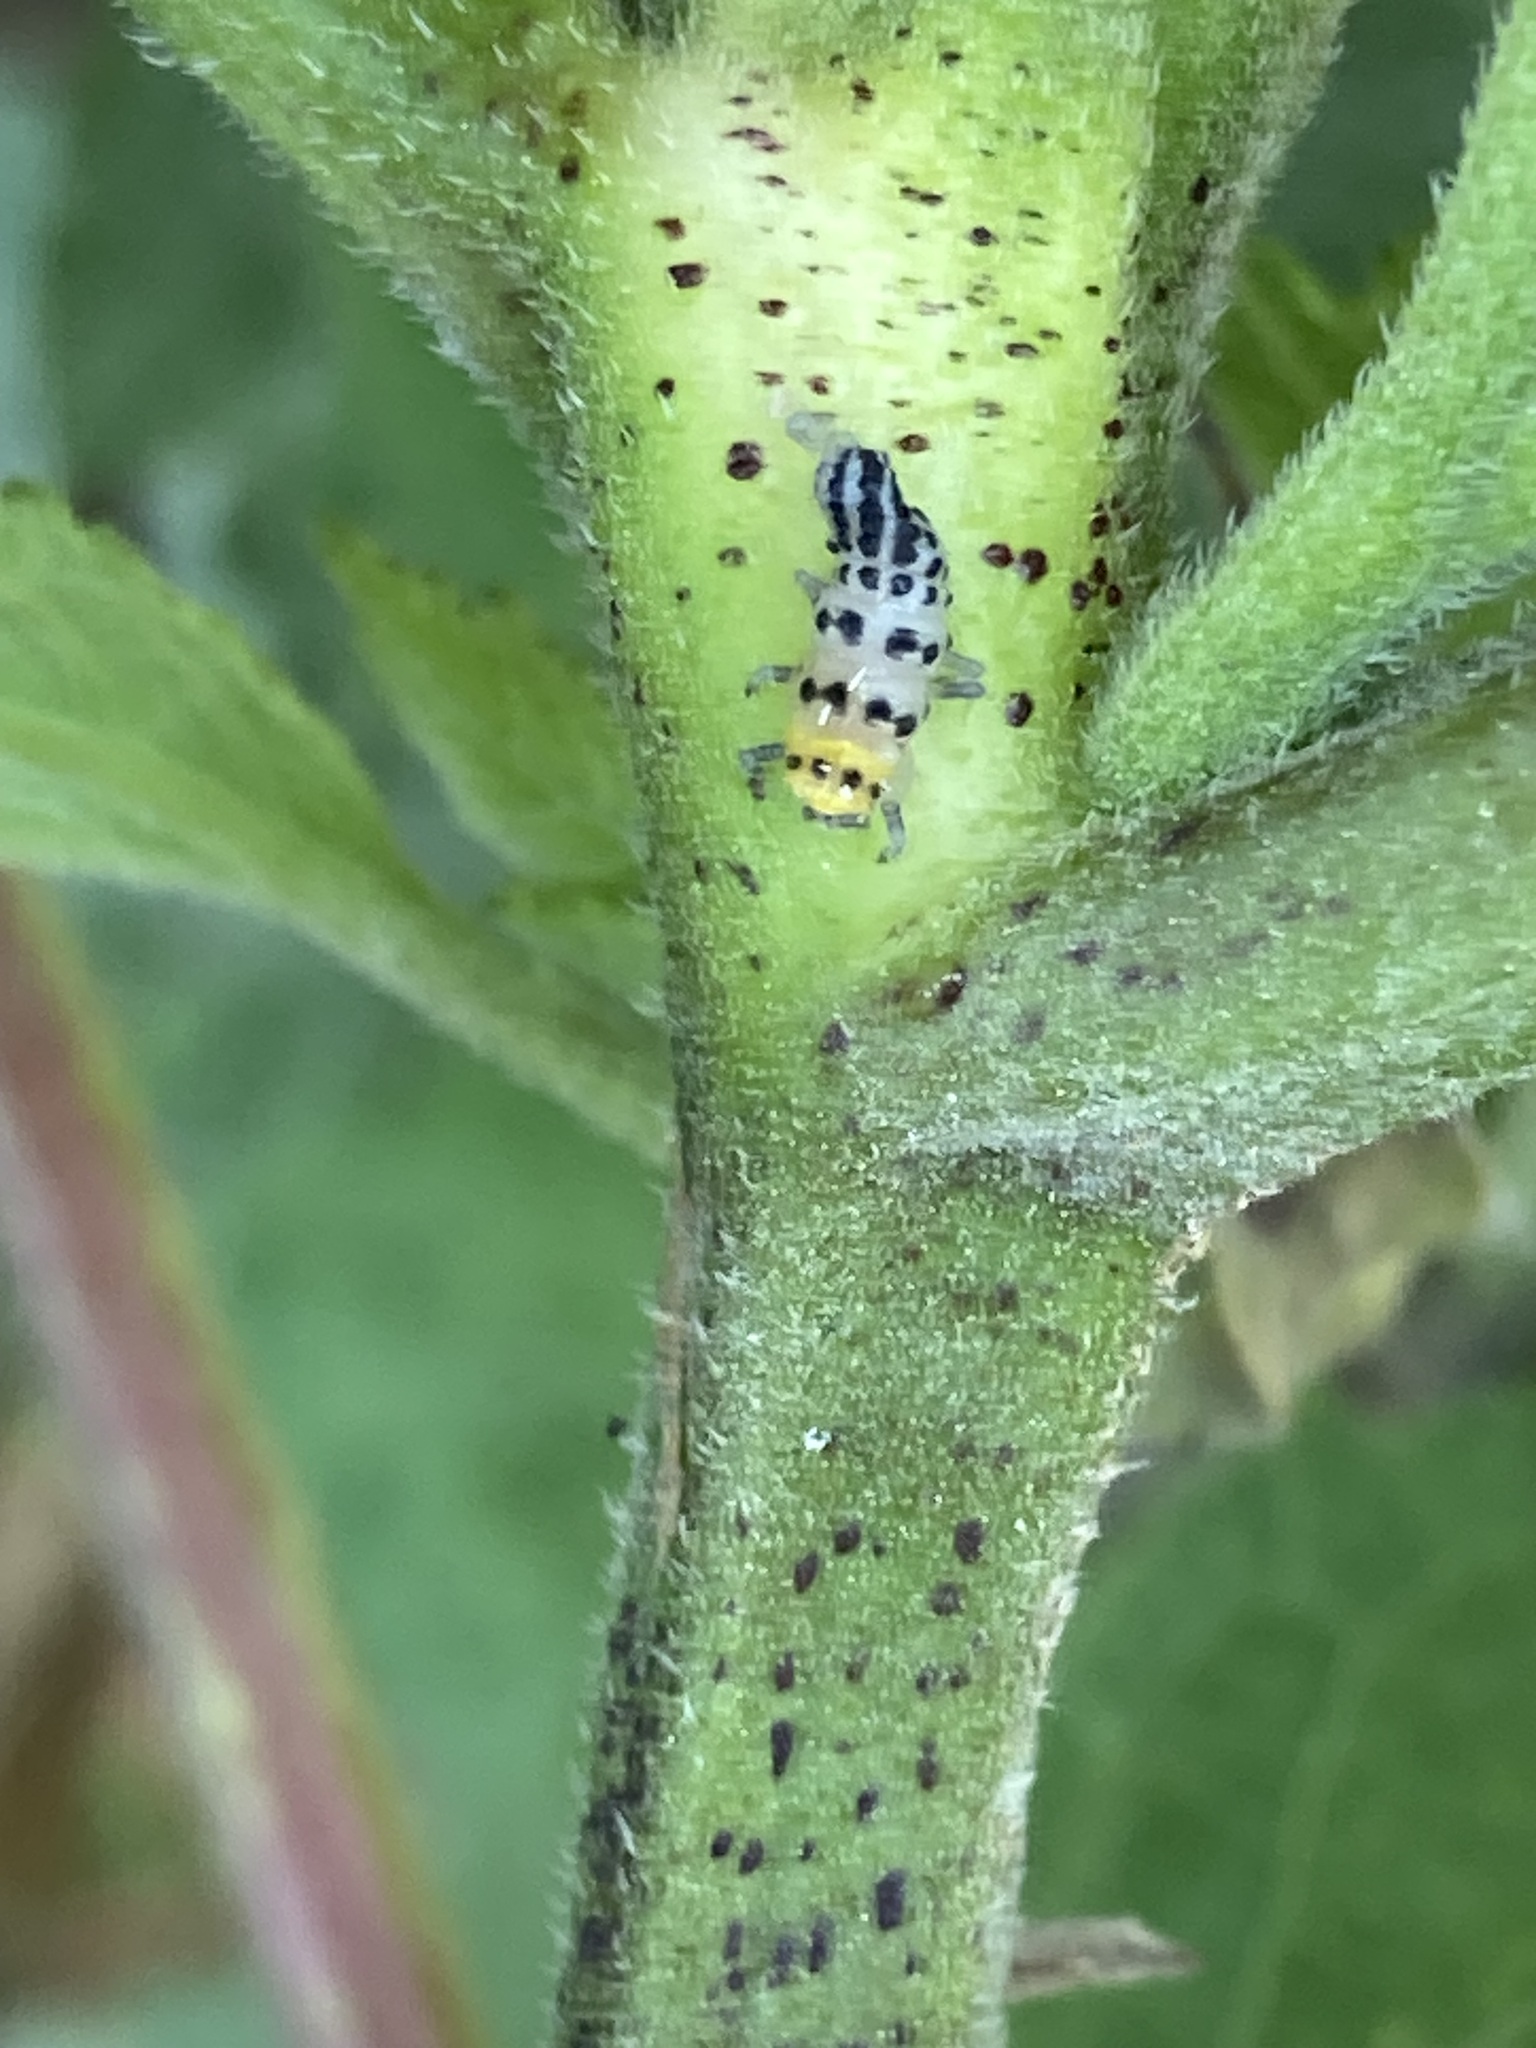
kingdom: Animalia
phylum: Arthropoda
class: Insecta
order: Coleoptera
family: Coccinellidae
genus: Illeis
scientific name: Illeis galbula
